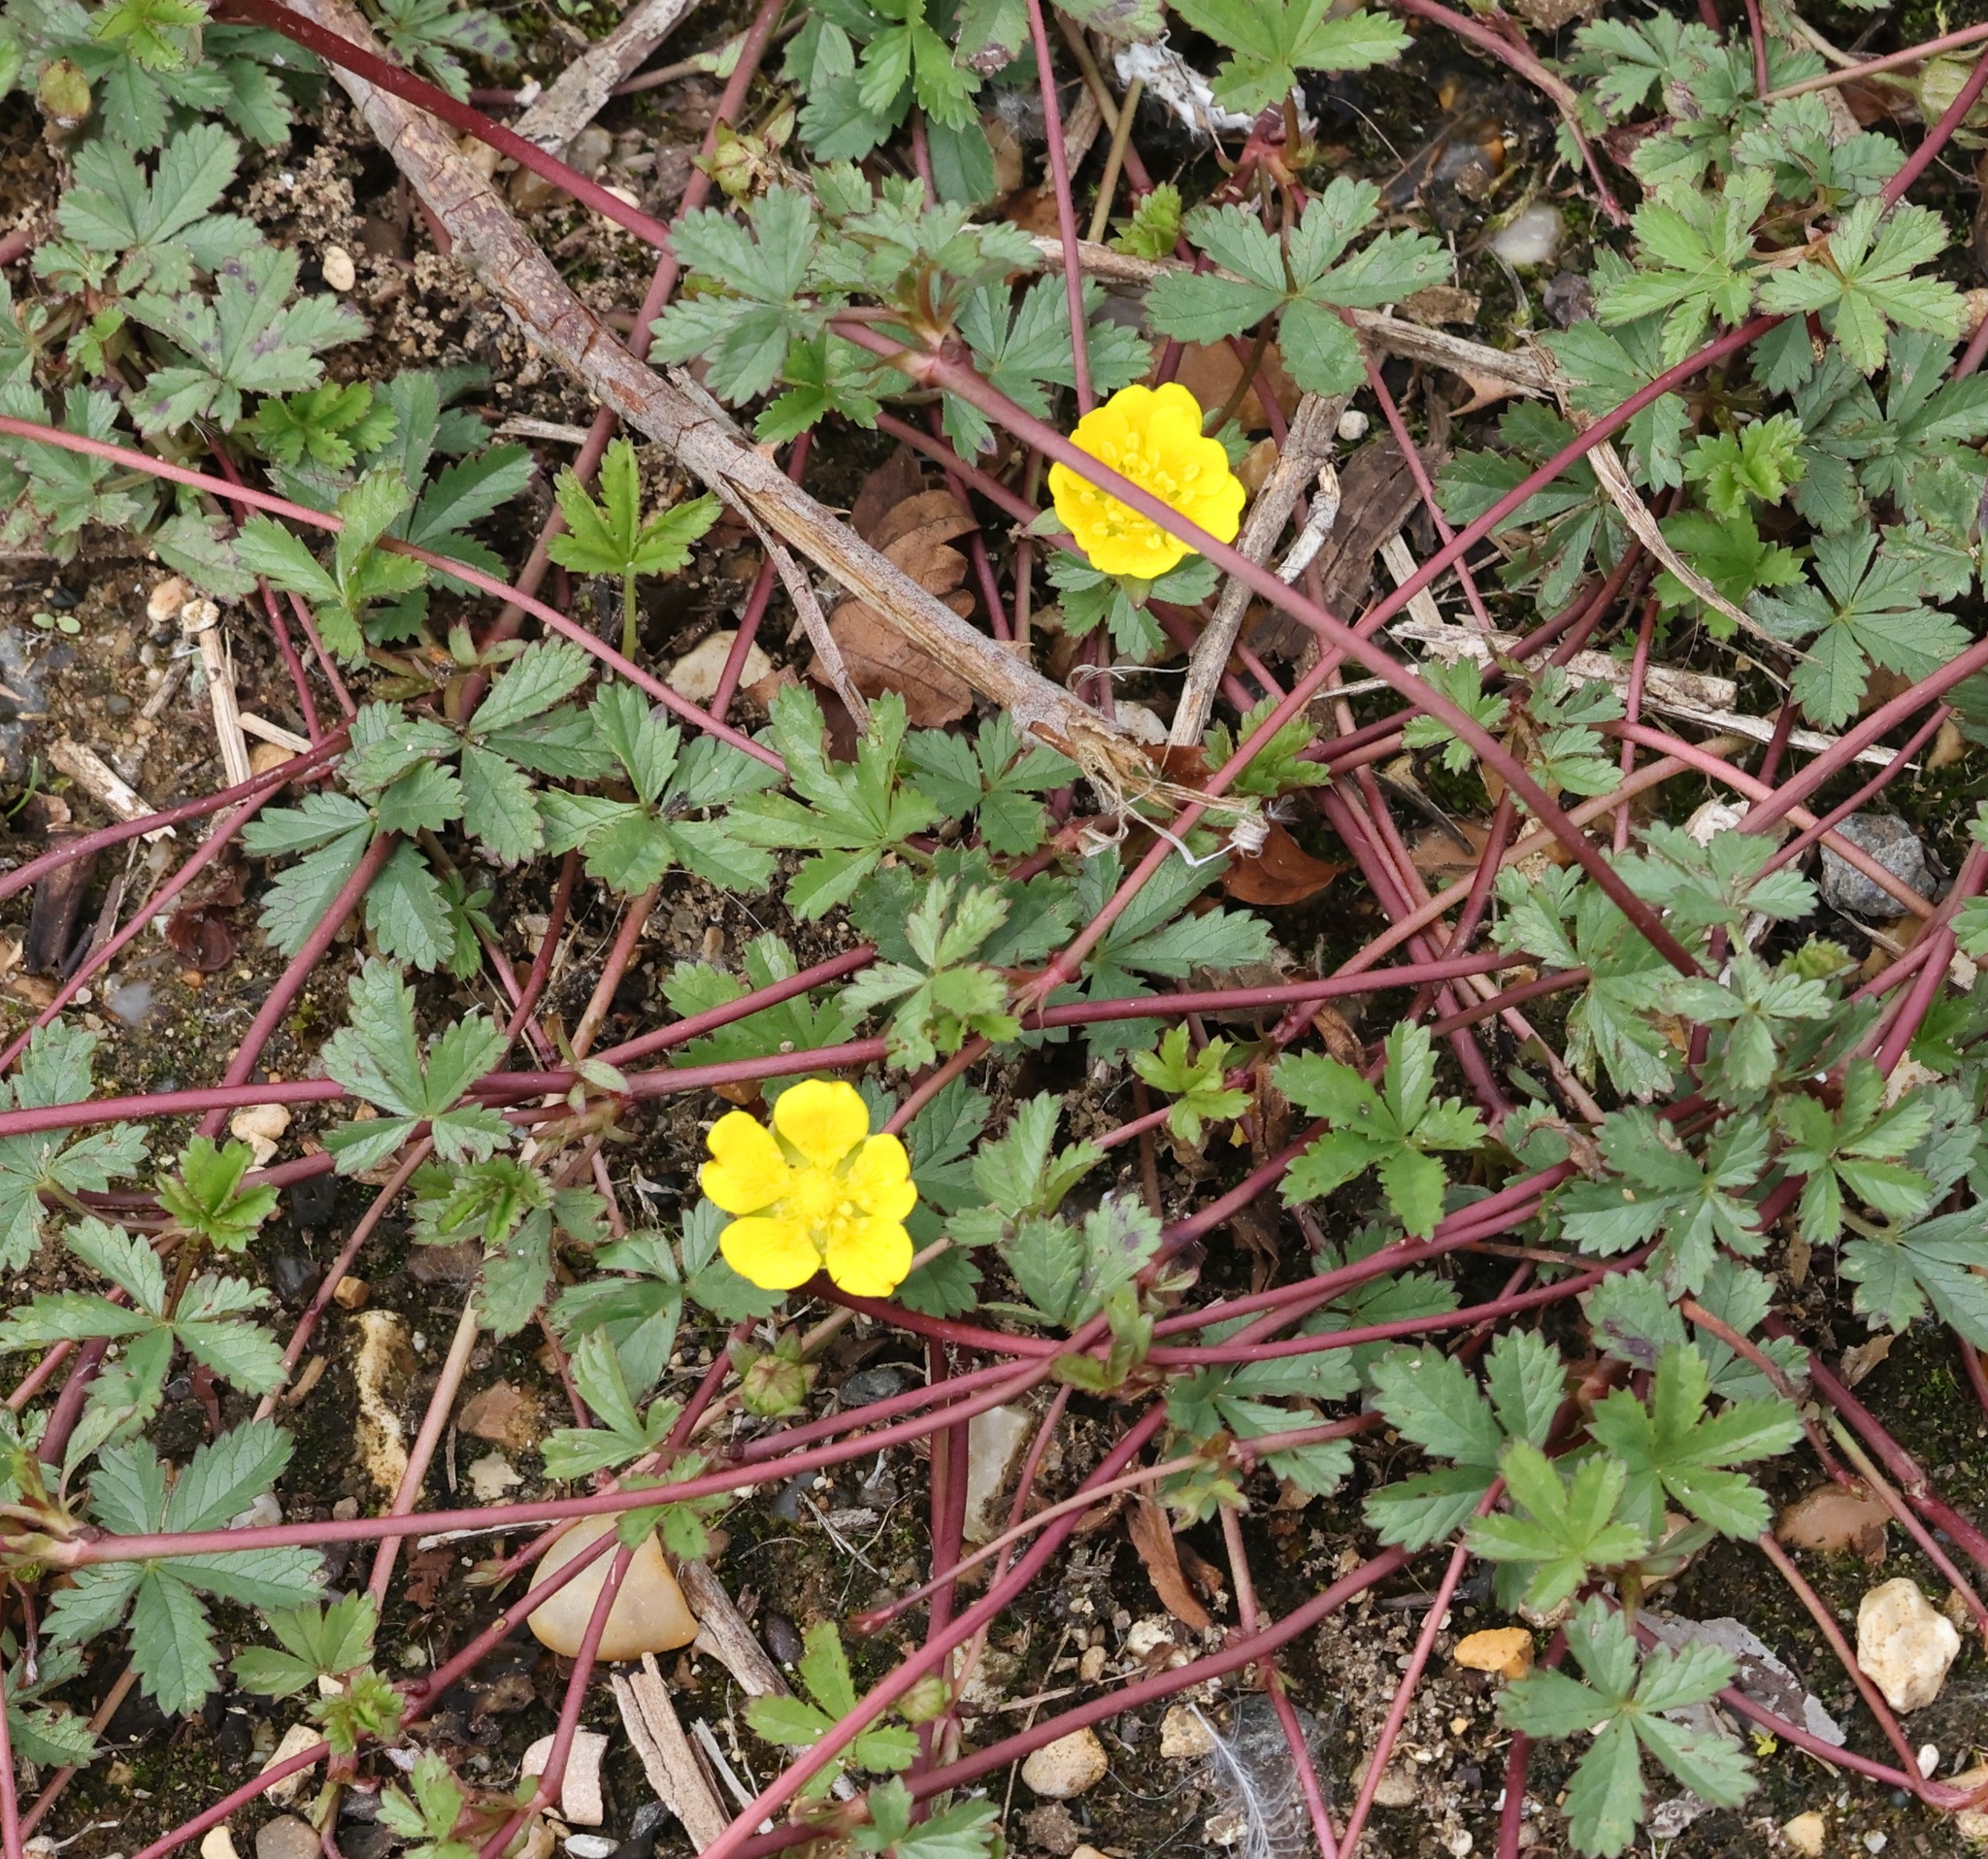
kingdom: Plantae
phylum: Tracheophyta
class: Magnoliopsida
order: Rosales
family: Rosaceae
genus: Potentilla
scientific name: Potentilla reptans
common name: Creeping cinquefoil
